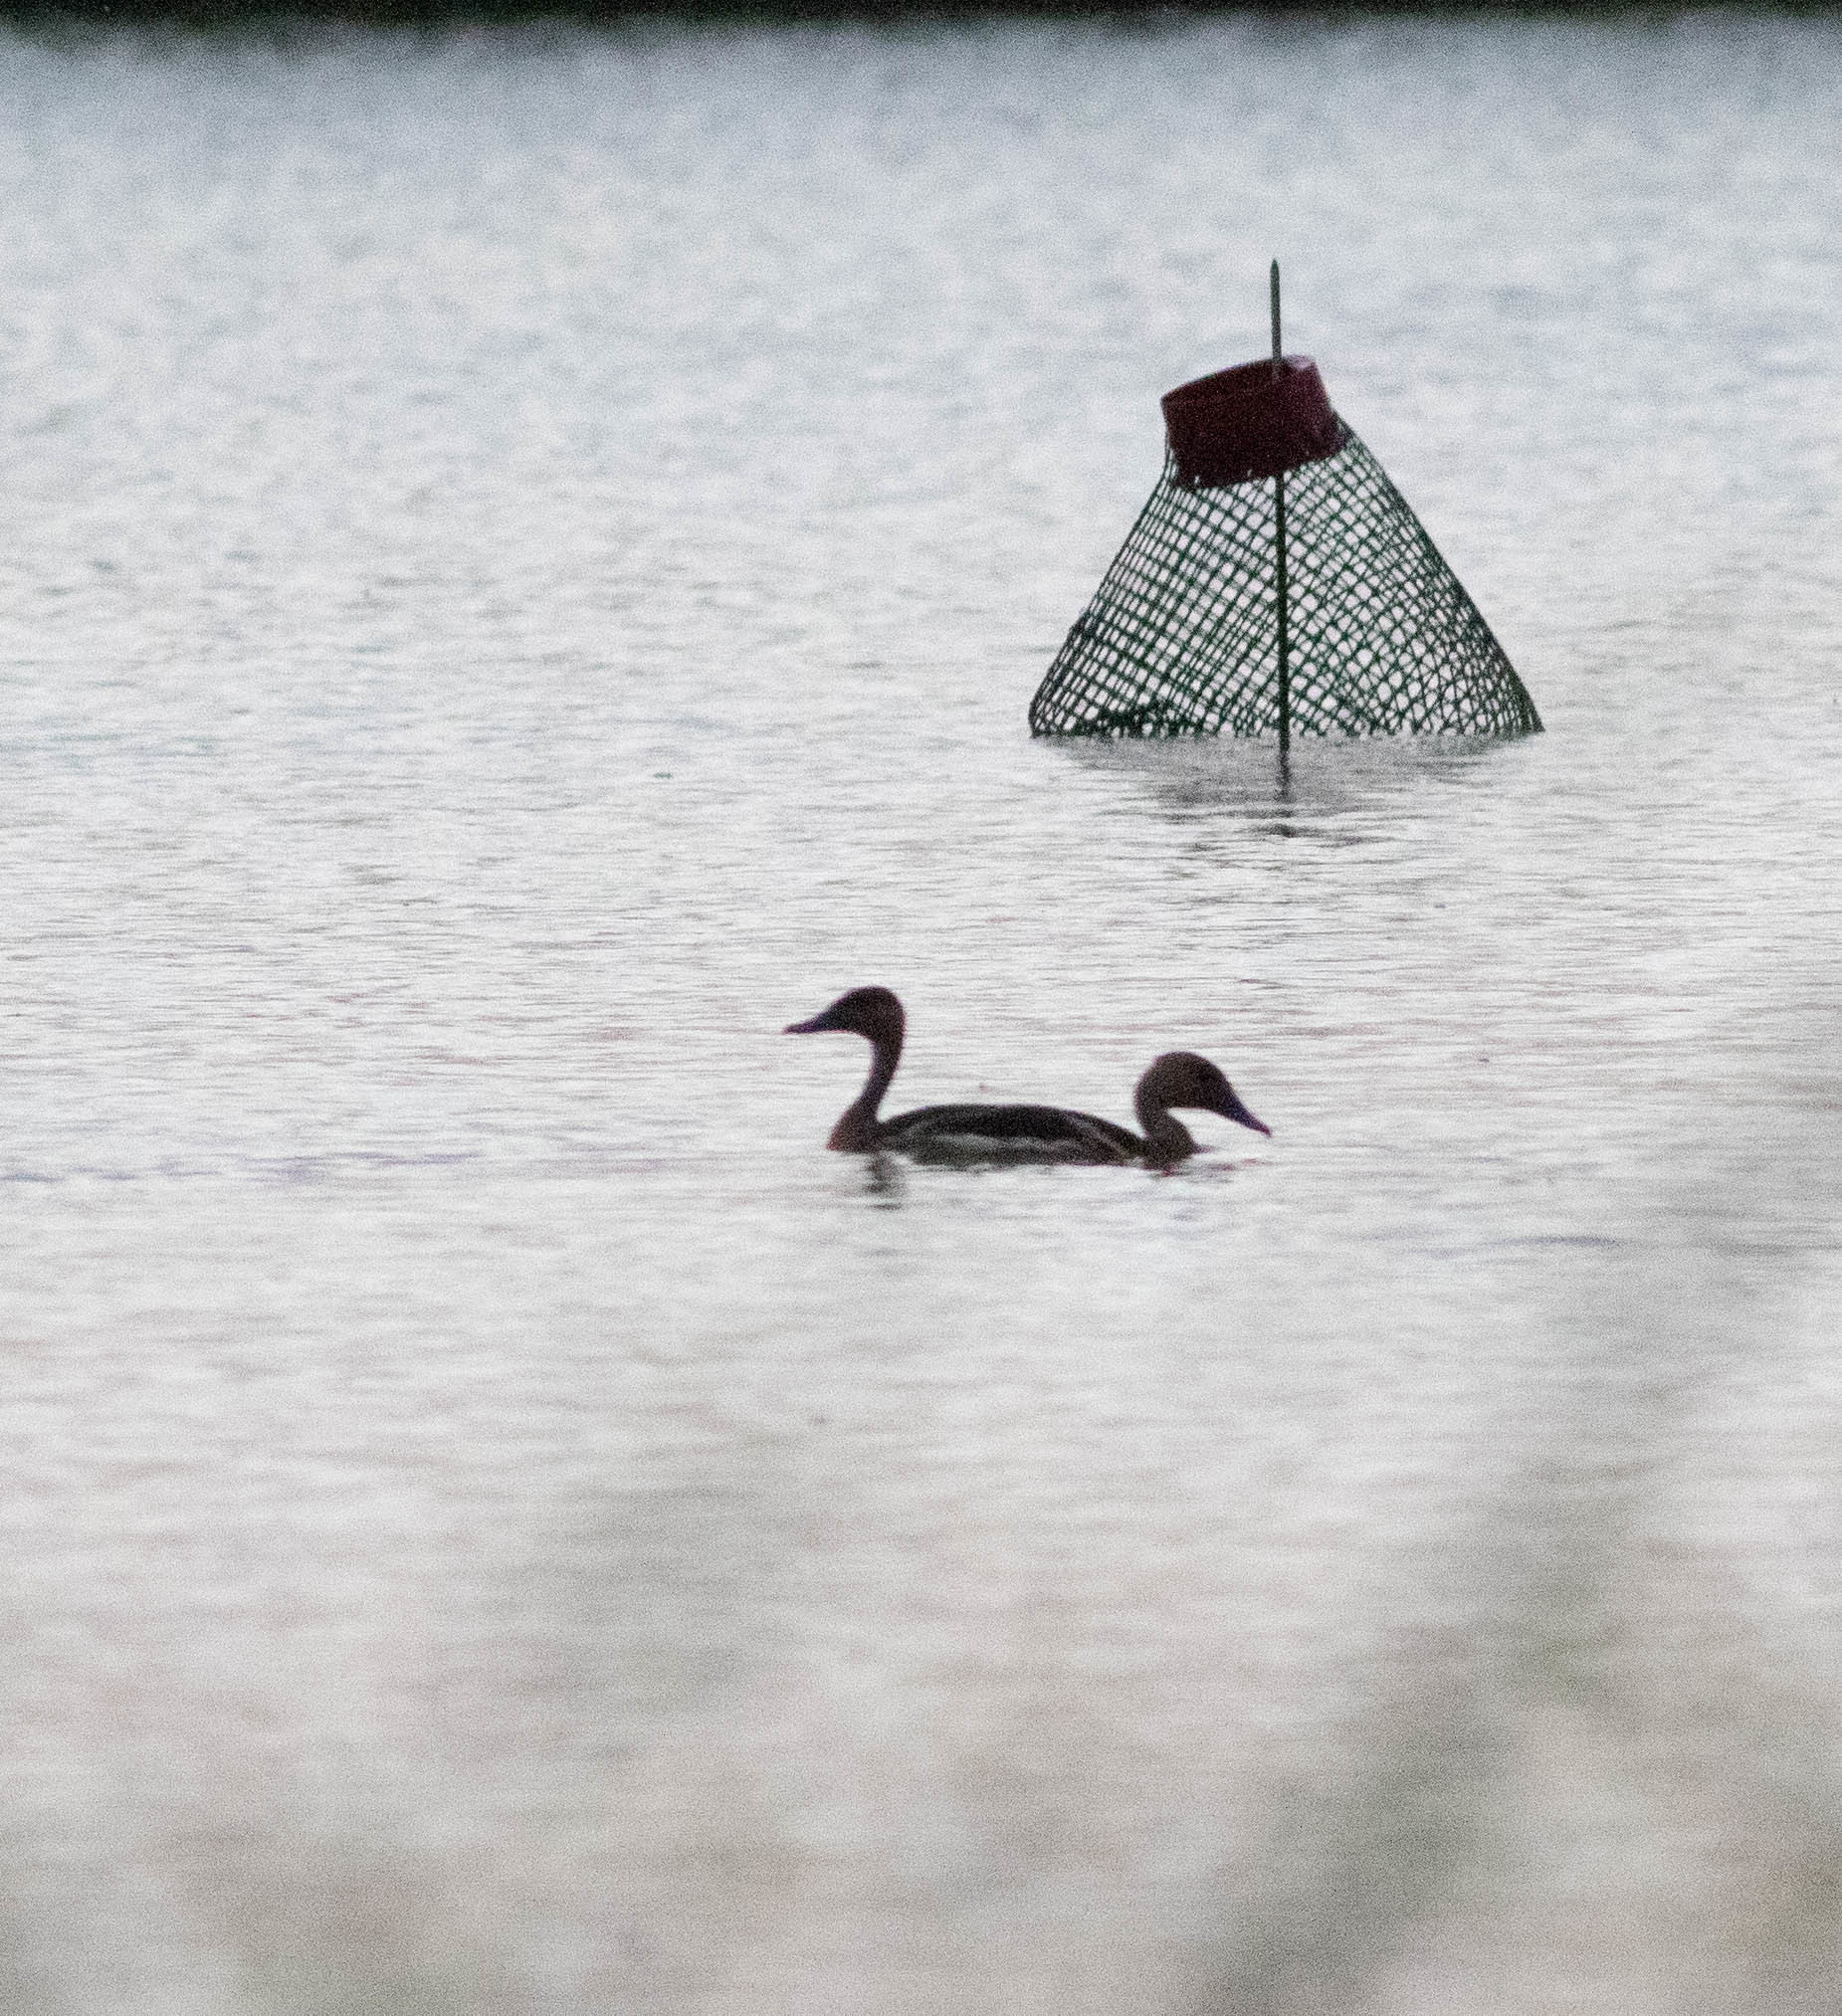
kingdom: Animalia
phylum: Chordata
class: Aves
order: Anseriformes
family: Anatidae
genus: Dendrocygna
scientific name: Dendrocygna bicolor
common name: Fulvous whistling duck
